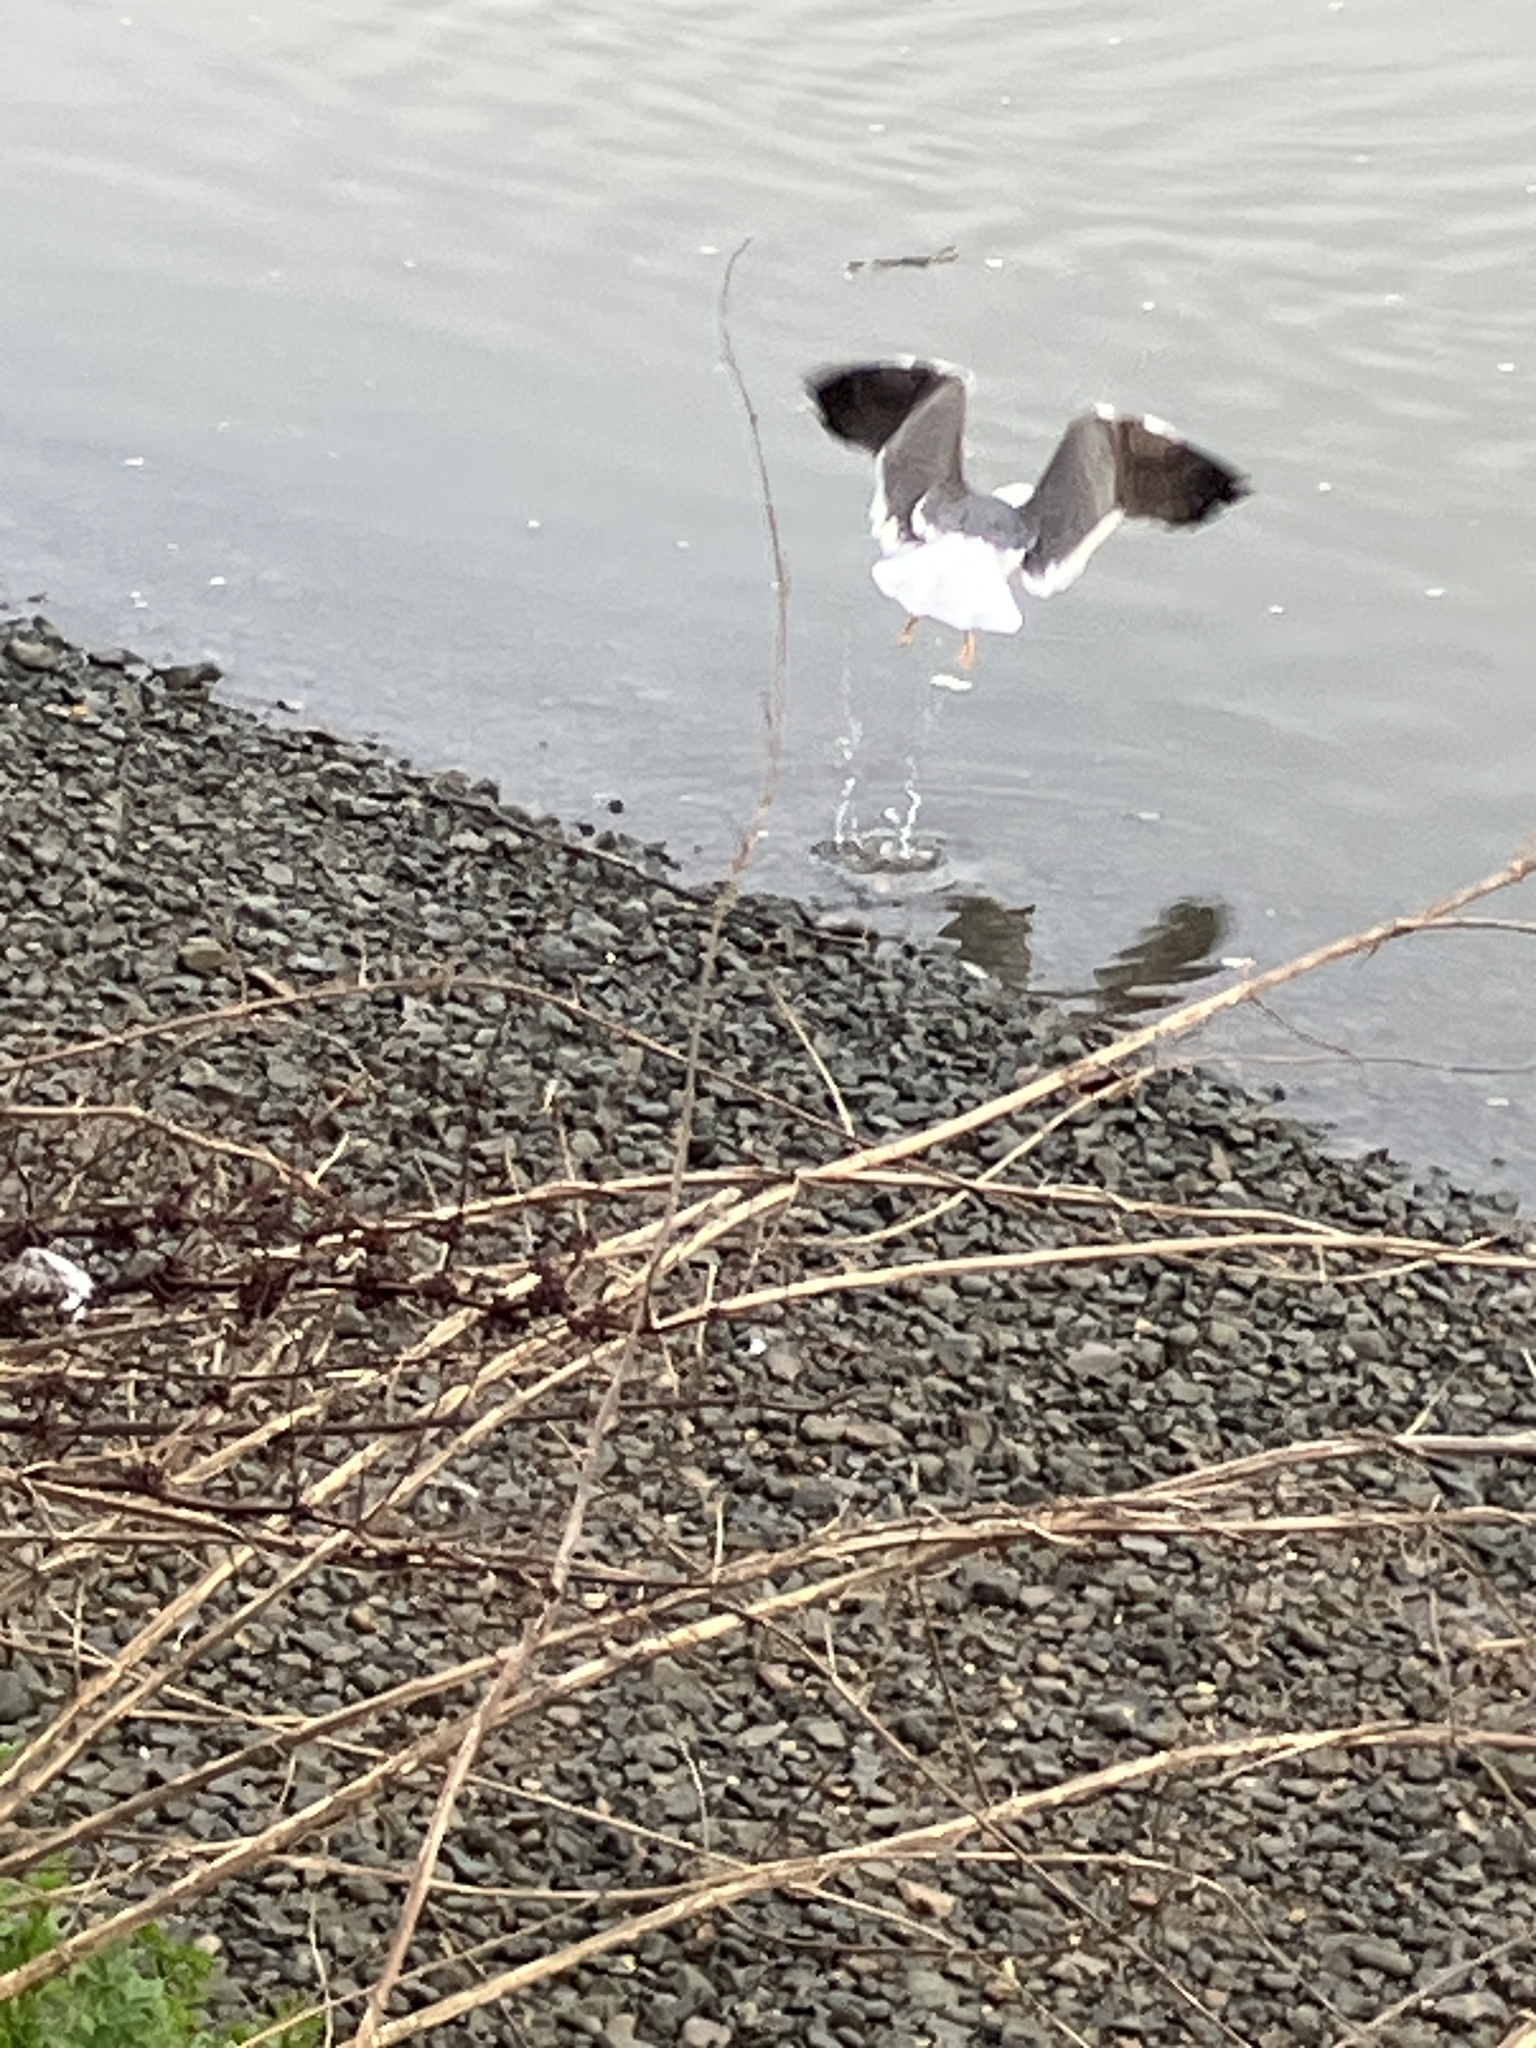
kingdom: Animalia
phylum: Chordata
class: Aves
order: Charadriiformes
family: Laridae
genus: Larus
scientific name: Larus fuscus
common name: Lesser black-backed gull
